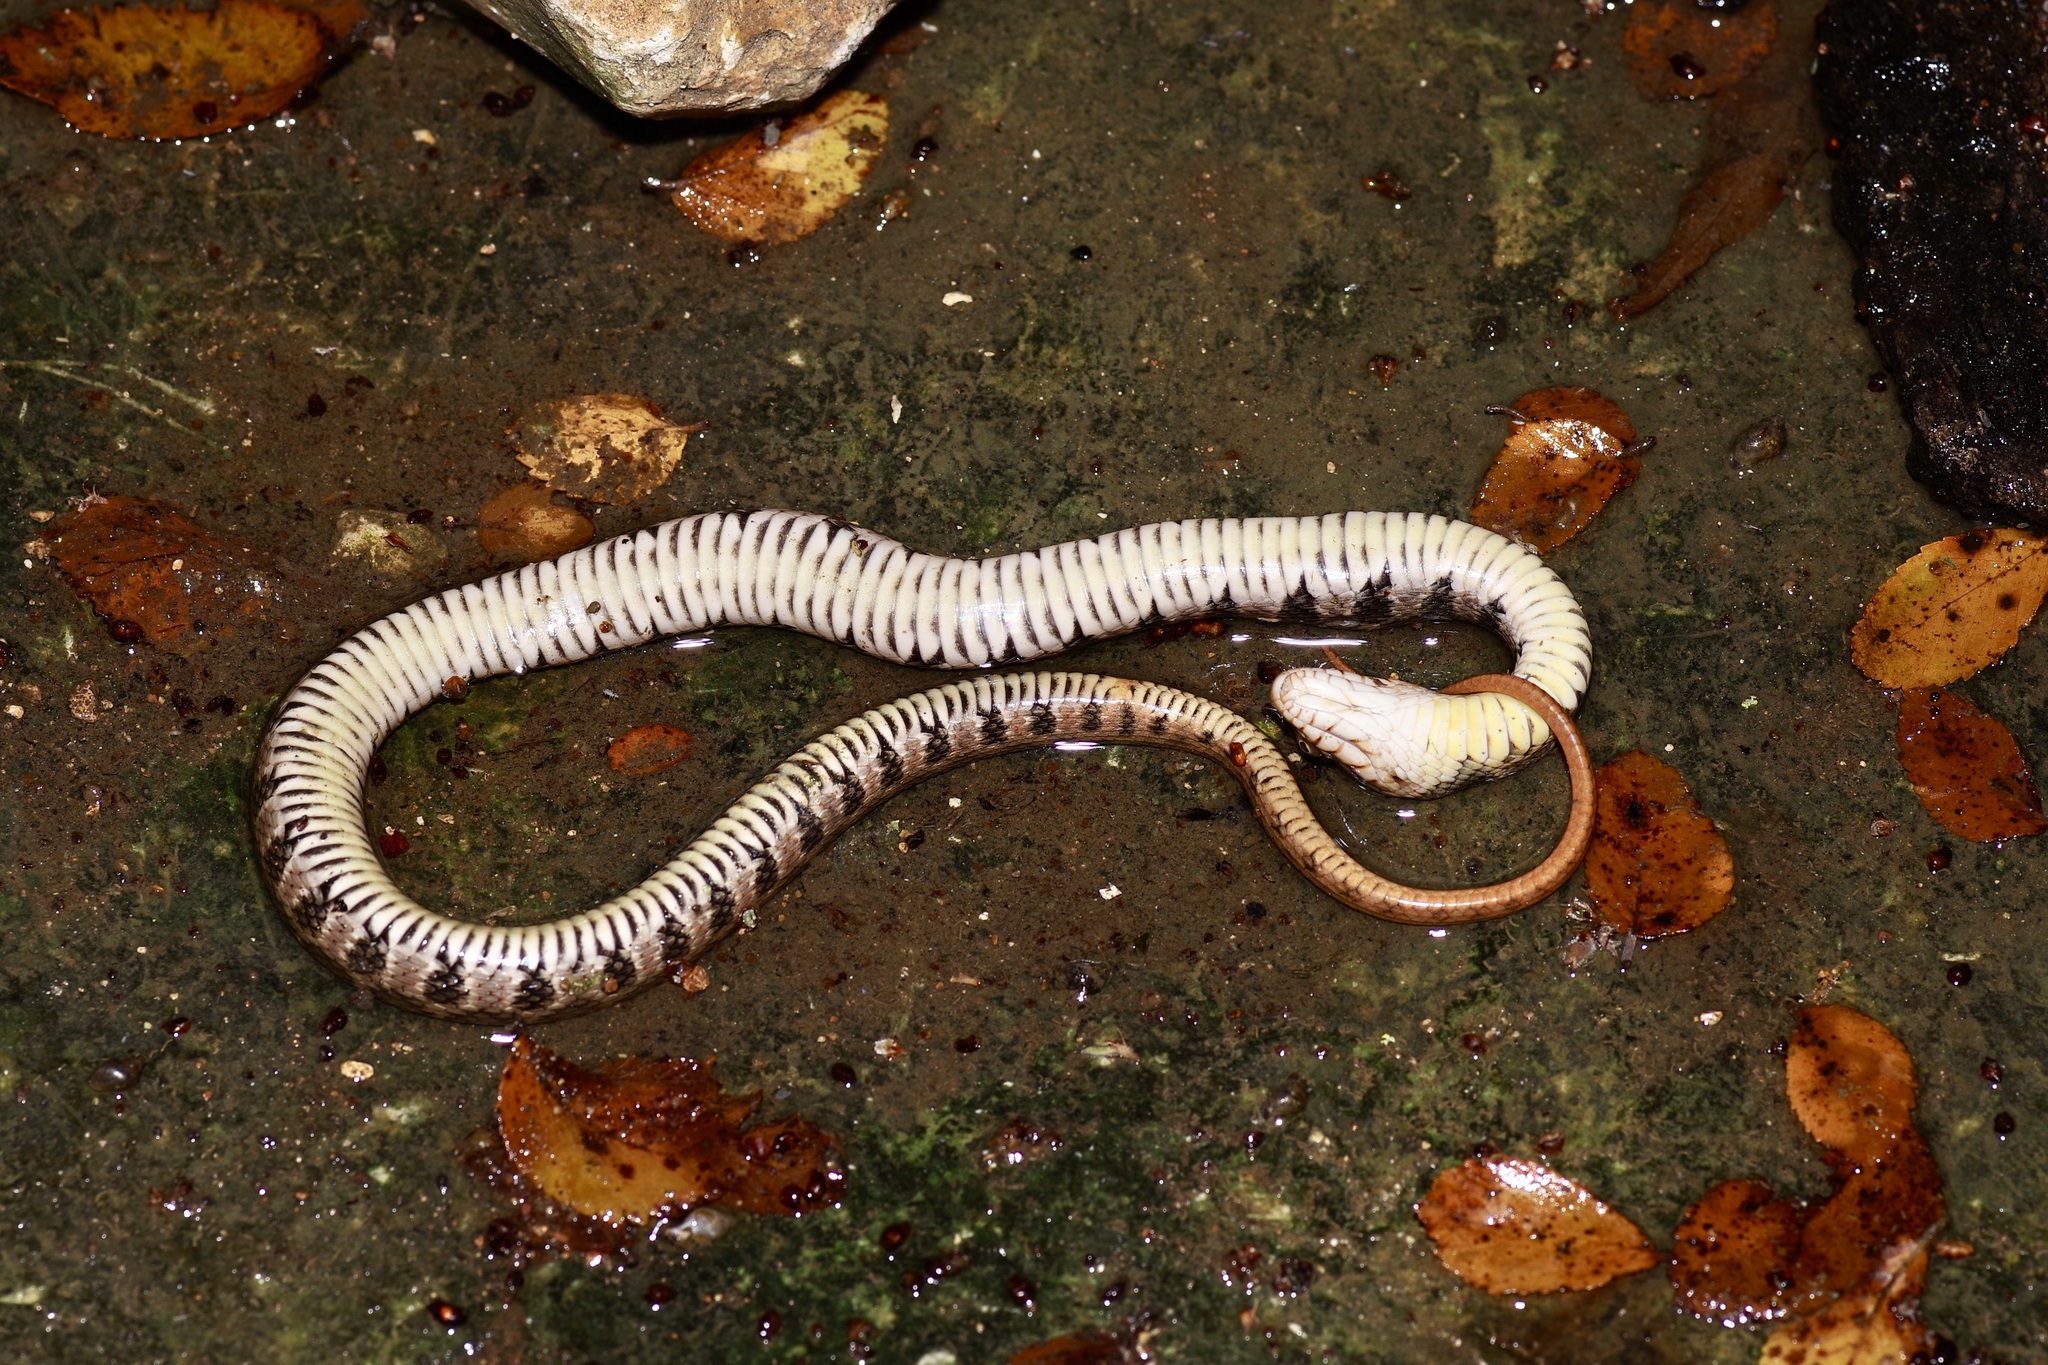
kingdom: Animalia
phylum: Chordata
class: Squamata
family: Colubridae
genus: Nerodia
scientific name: Nerodia erythrogaster
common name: Plainbelly water snake
